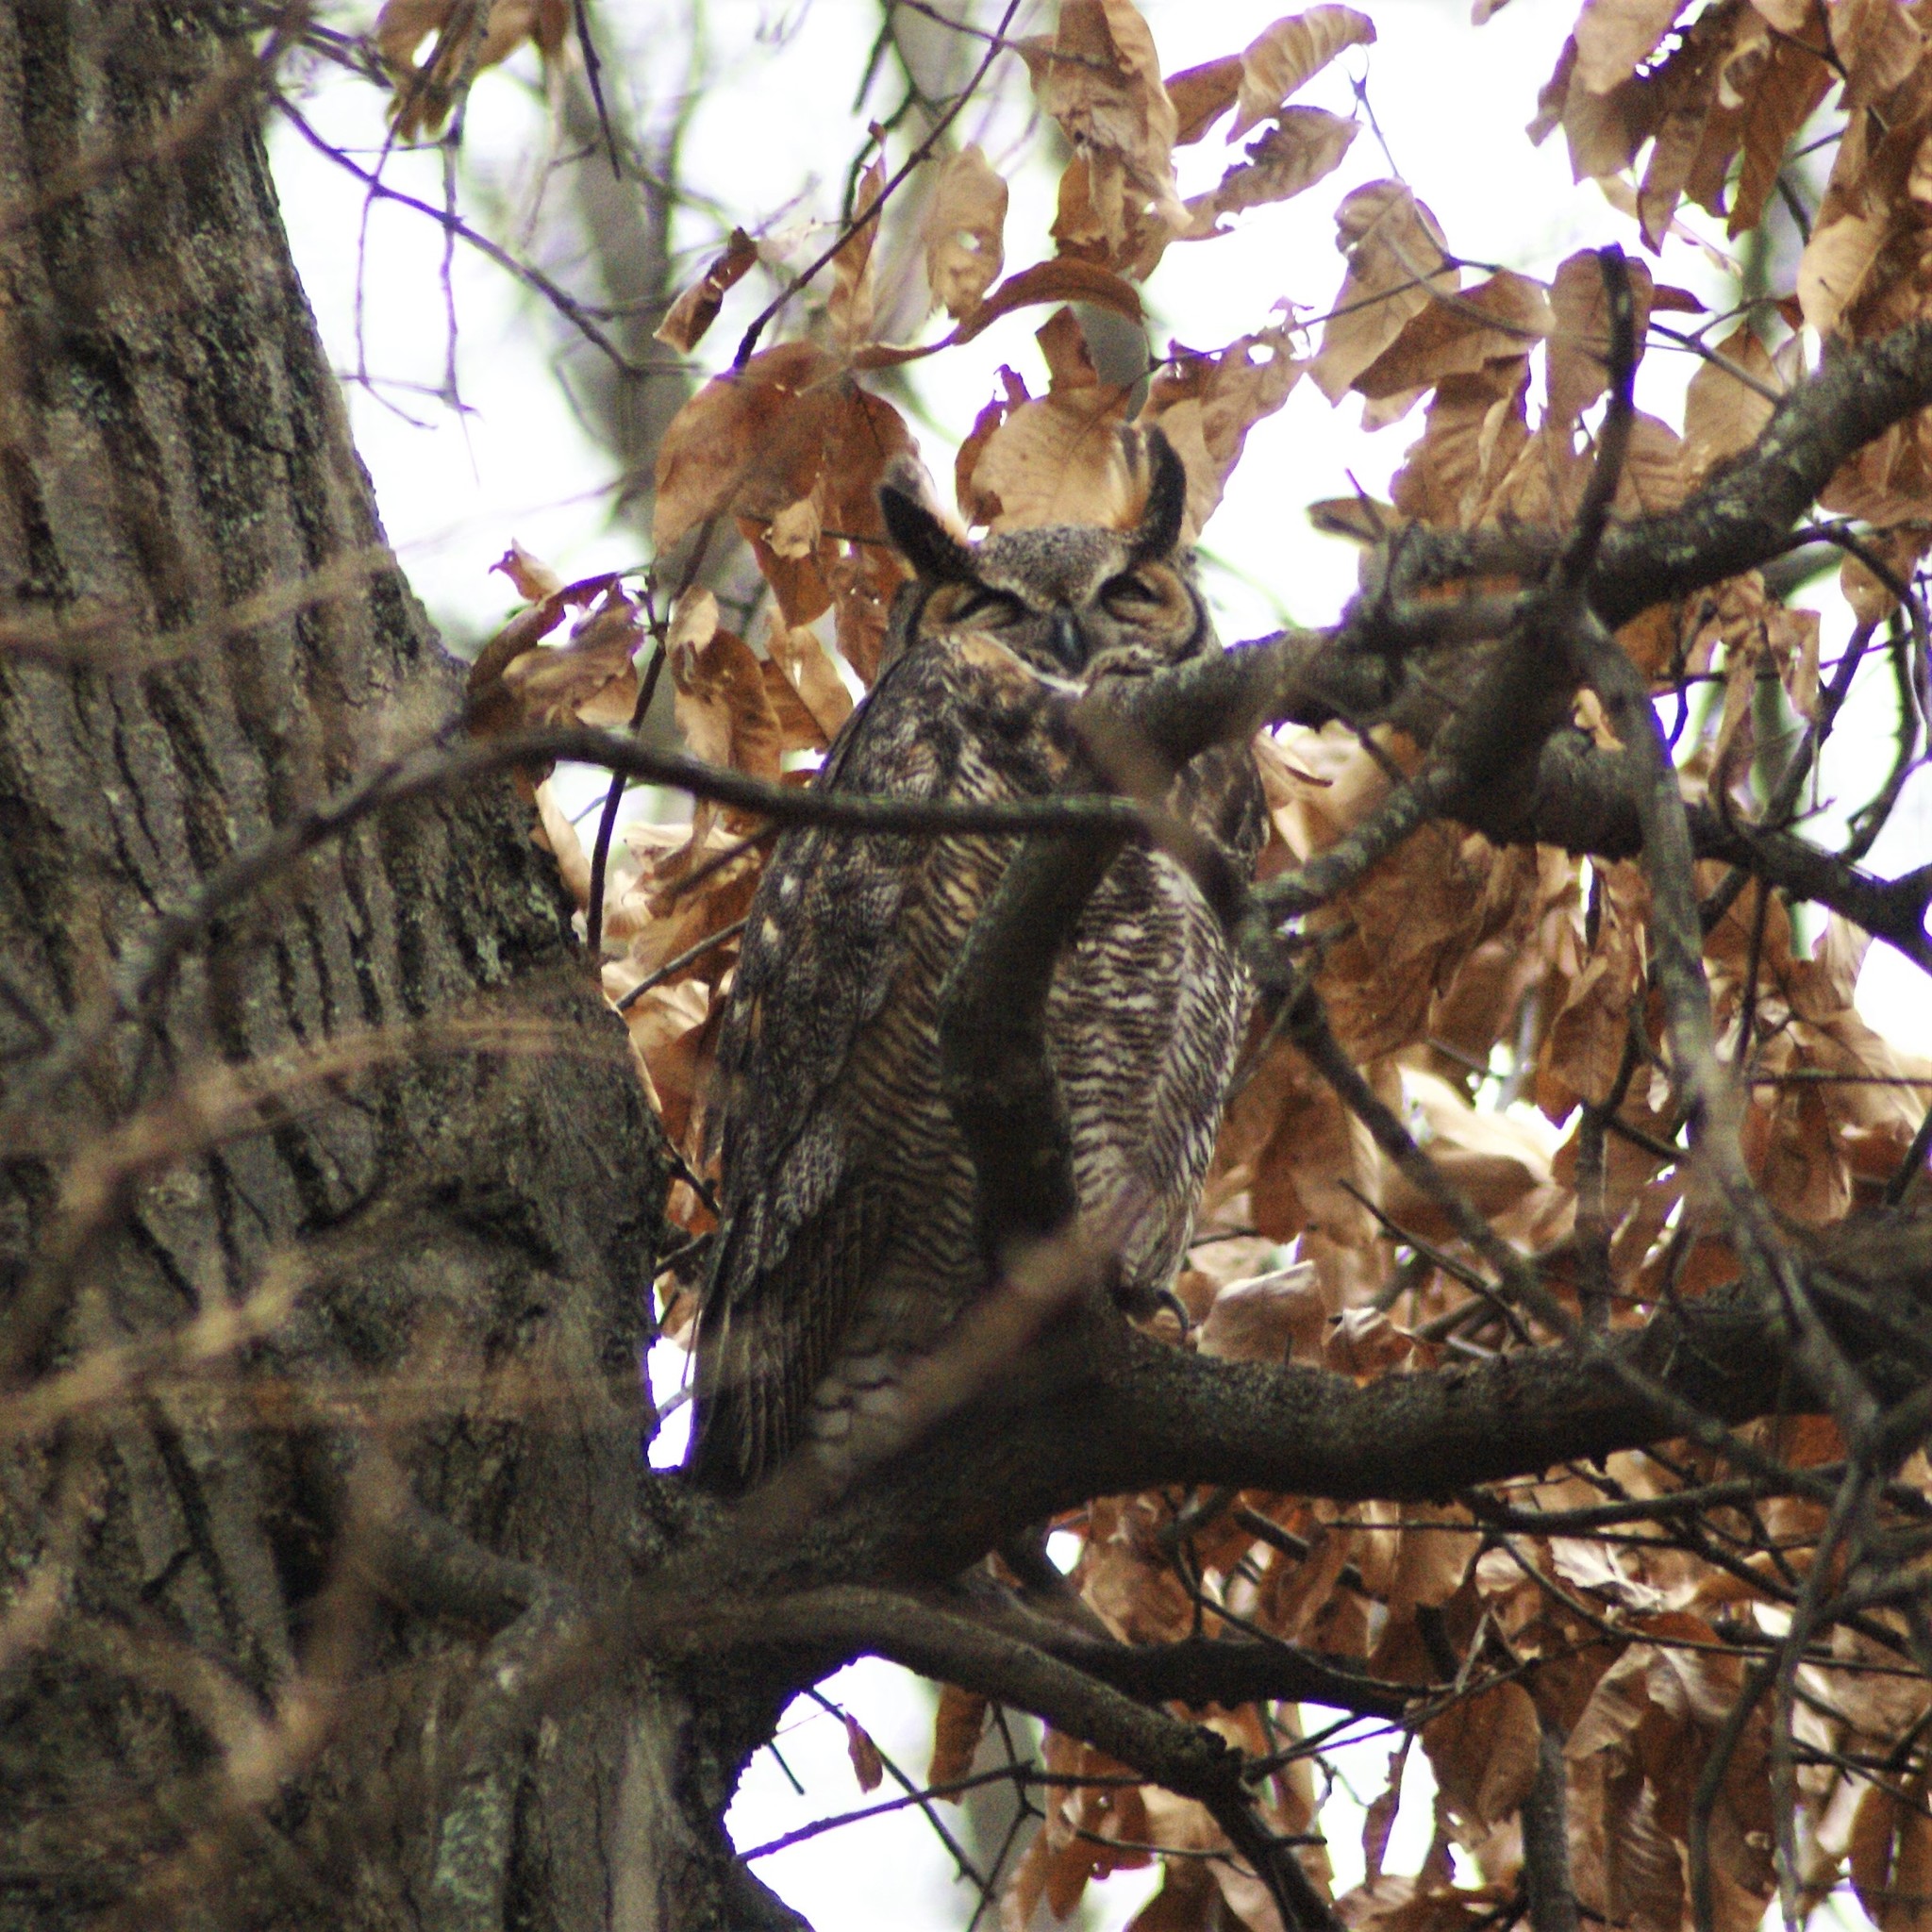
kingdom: Animalia
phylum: Chordata
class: Aves
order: Strigiformes
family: Strigidae
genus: Bubo
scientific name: Bubo virginianus
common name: Great horned owl
